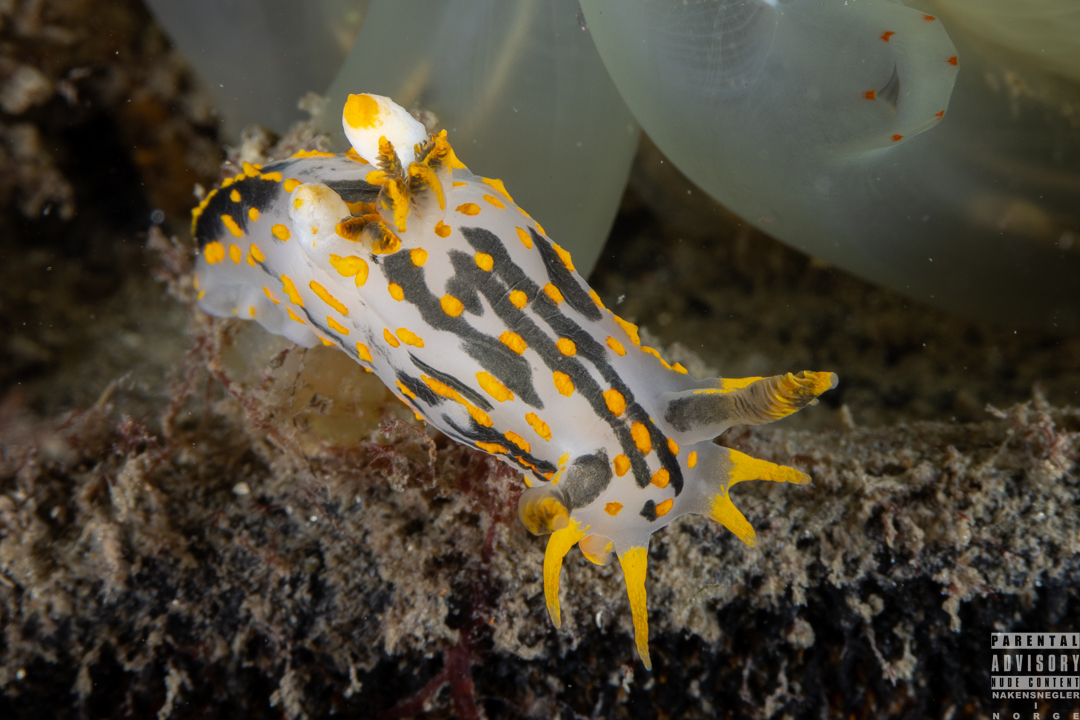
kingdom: Animalia
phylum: Mollusca
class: Gastropoda
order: Nudibranchia
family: Polyceridae
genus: Polycera
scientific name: Polycera quadrilineata
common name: Four-striped polycera
